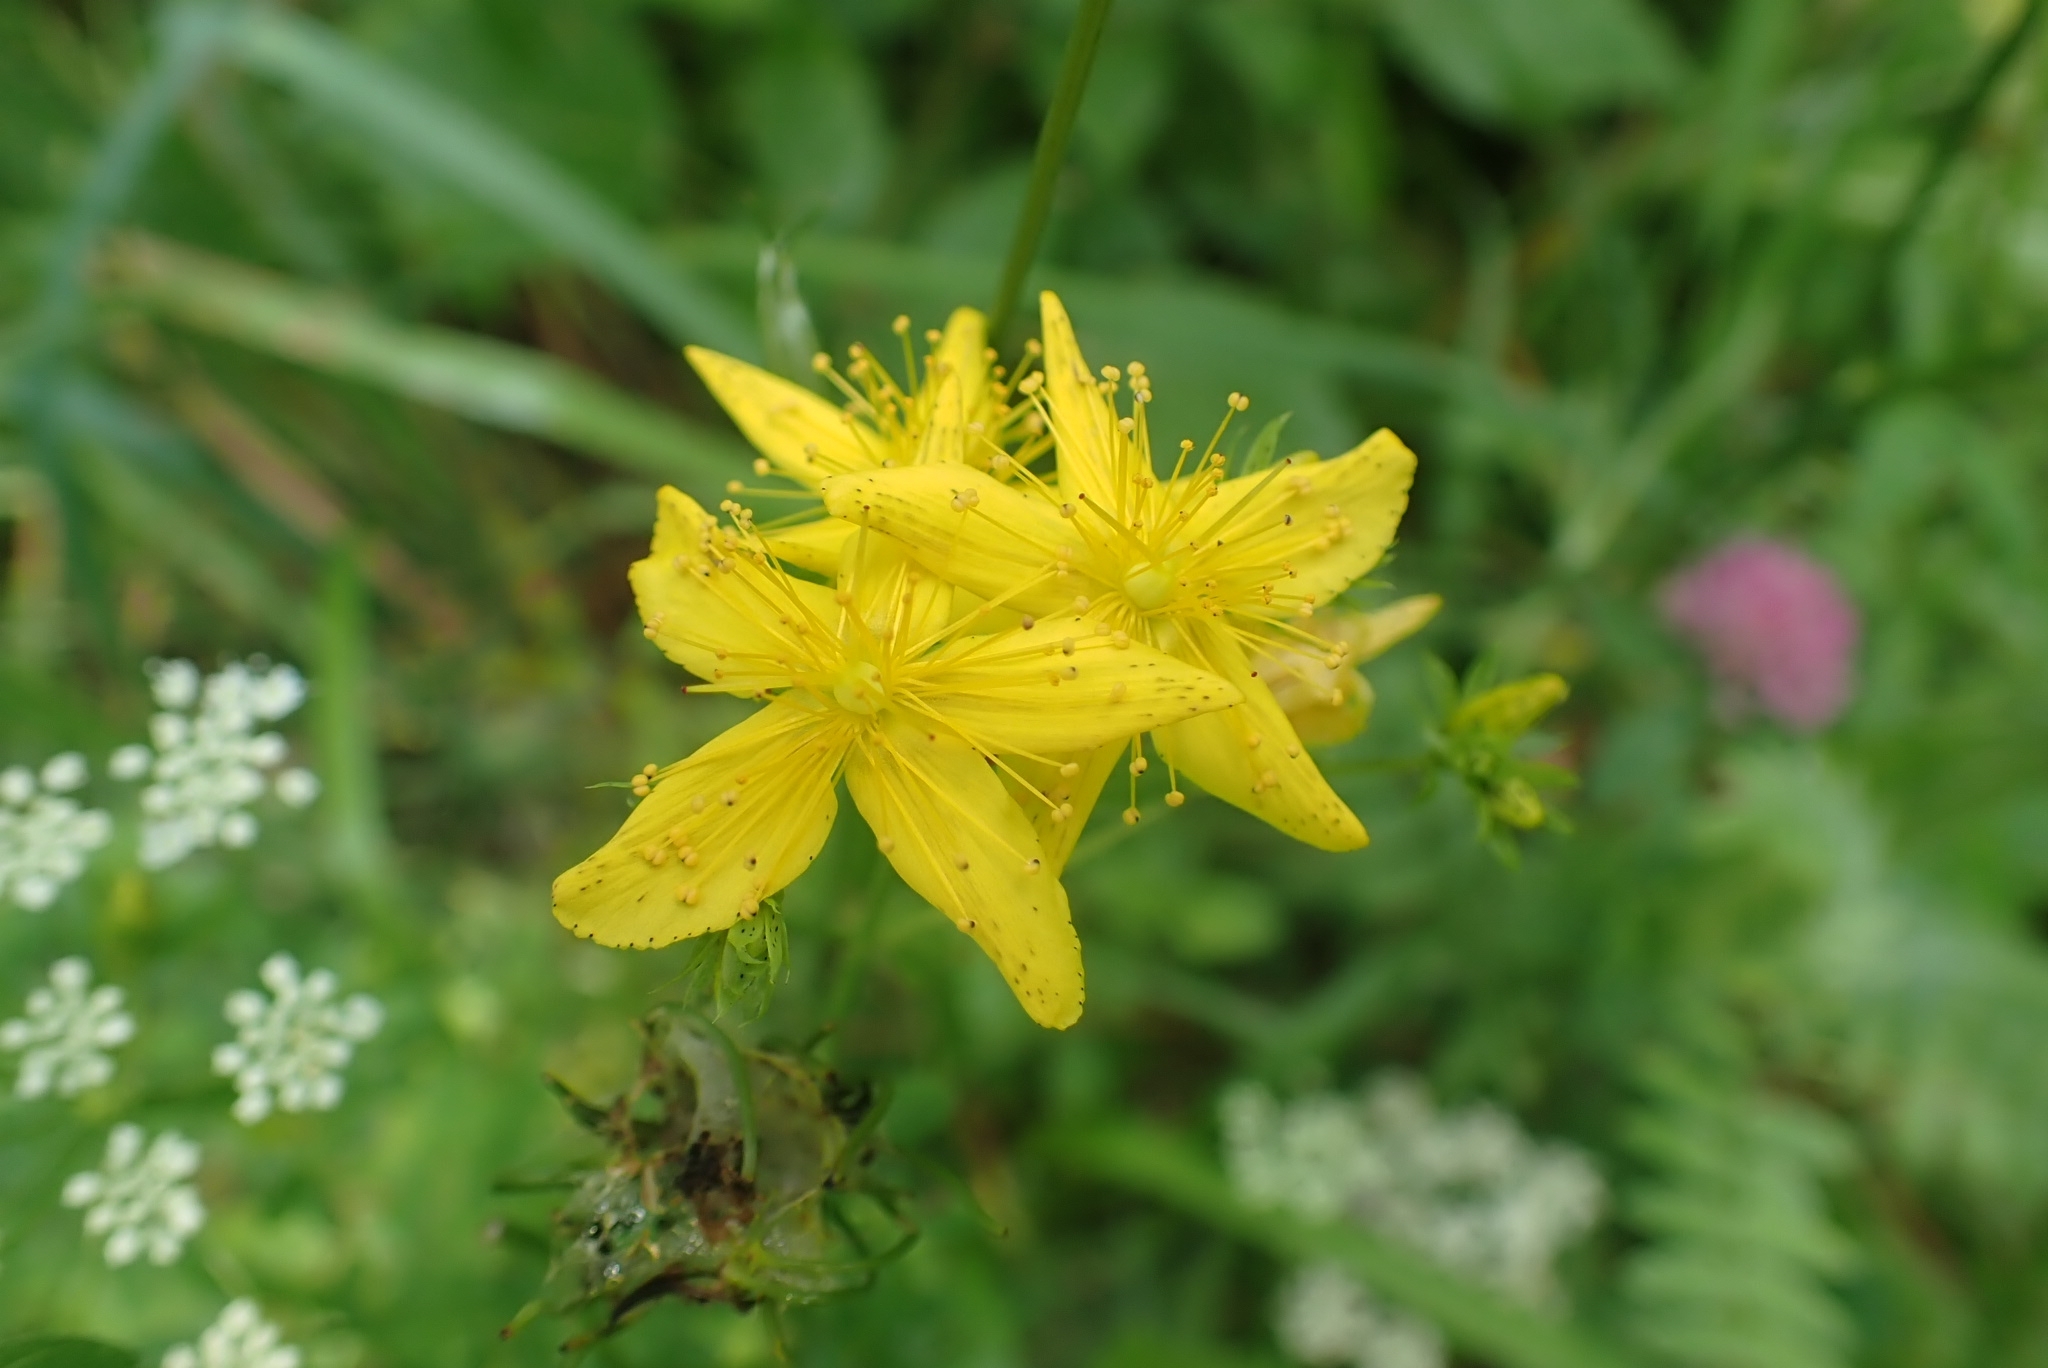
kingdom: Plantae
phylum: Tracheophyta
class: Magnoliopsida
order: Malpighiales
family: Hypericaceae
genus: Hypericum
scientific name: Hypericum perforatum
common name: Common st. johnswort
